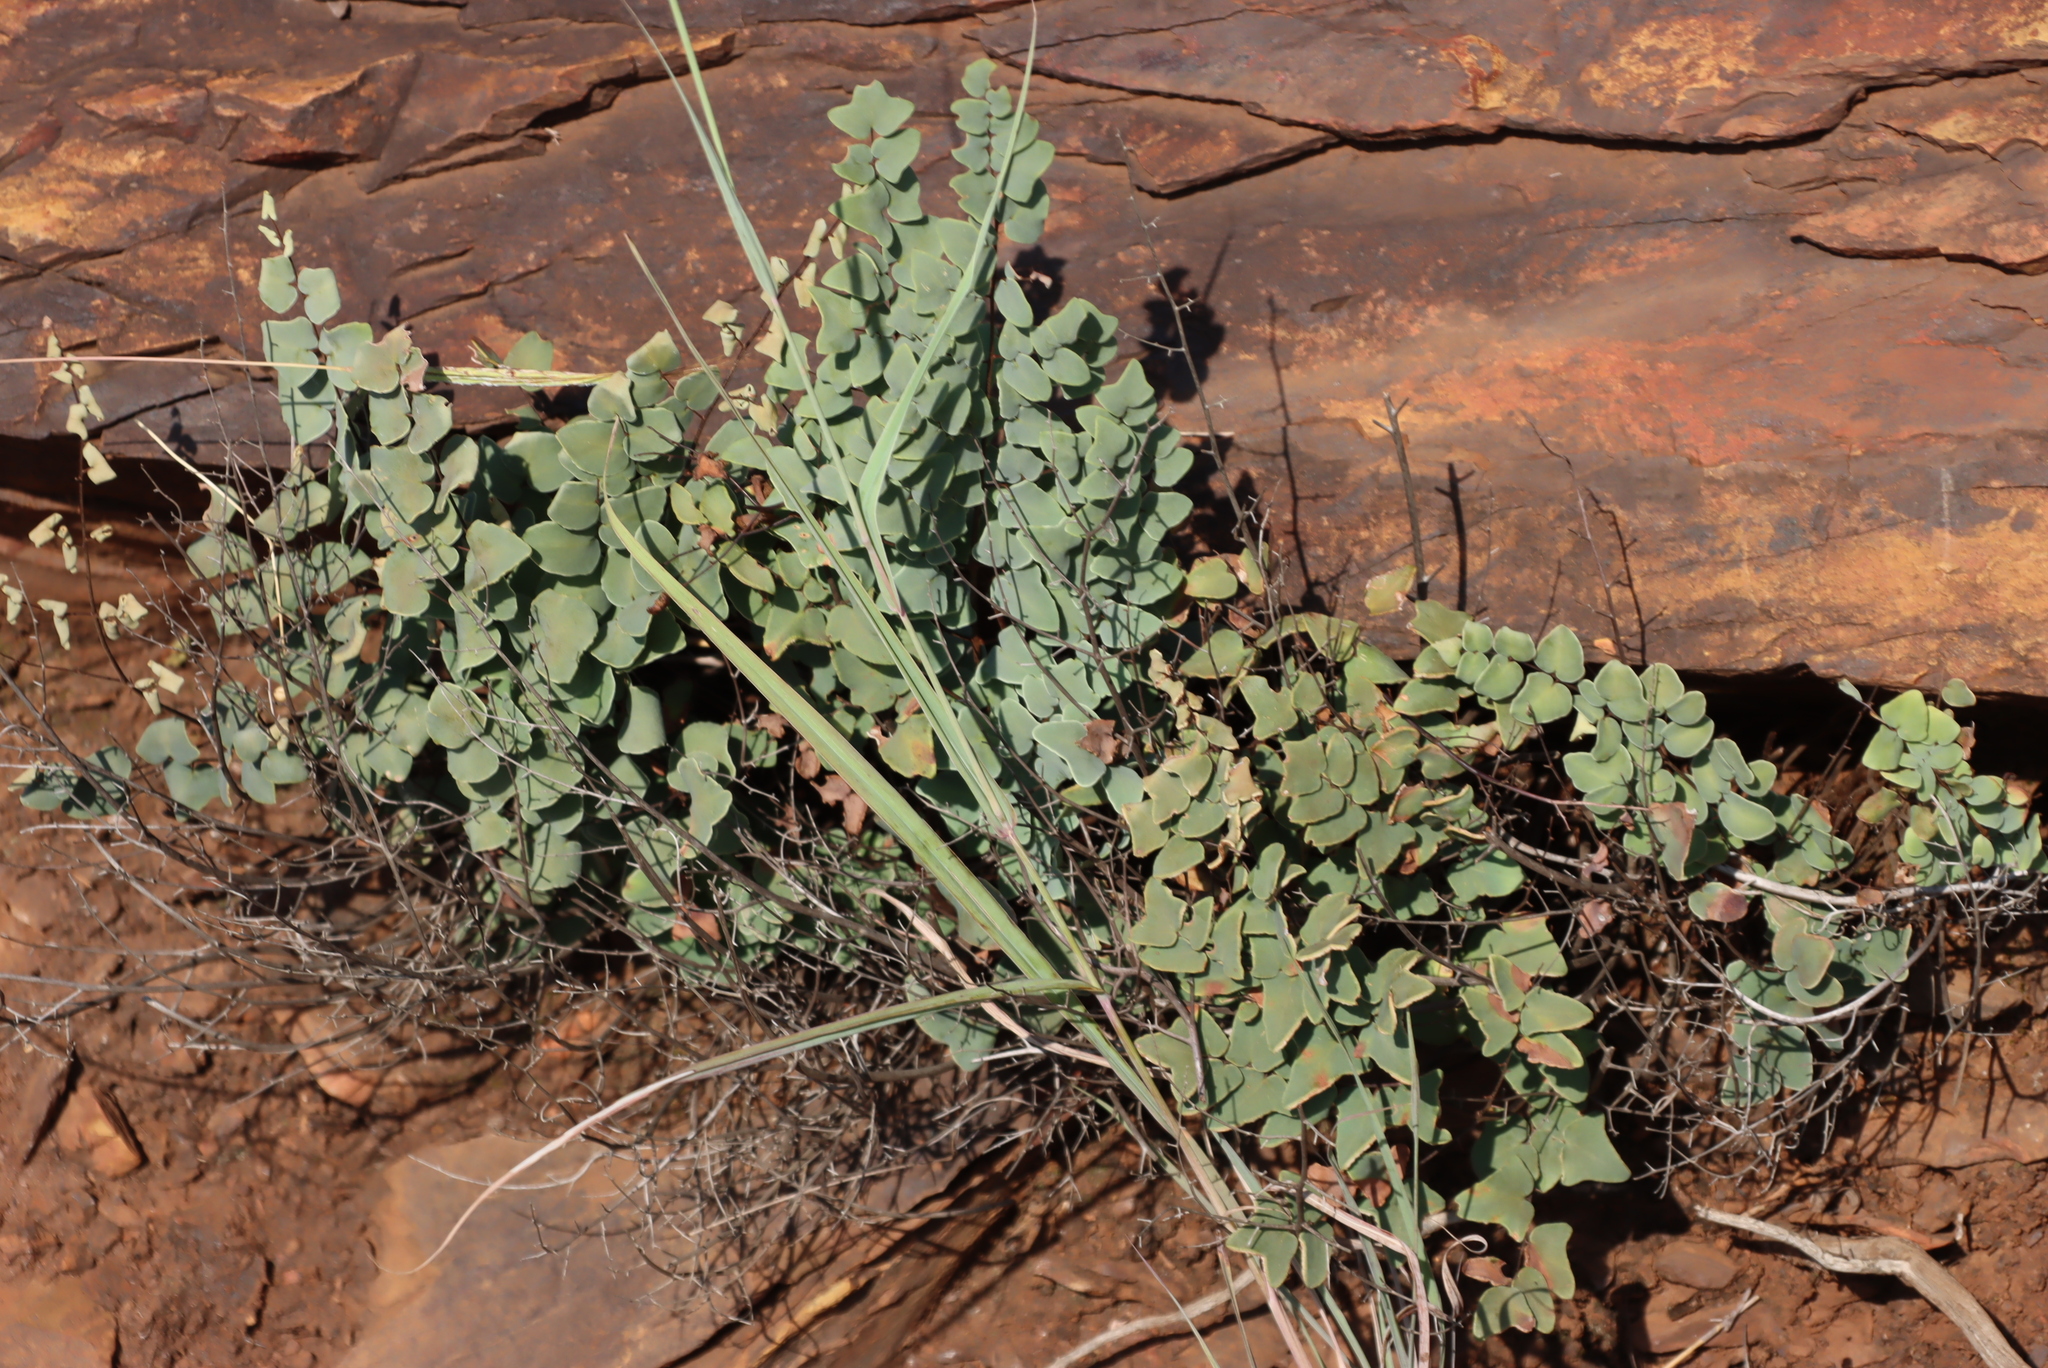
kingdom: Plantae
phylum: Tracheophyta
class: Polypodiopsida
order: Polypodiales
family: Pteridaceae
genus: Pellaea
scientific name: Pellaea calomelanos
